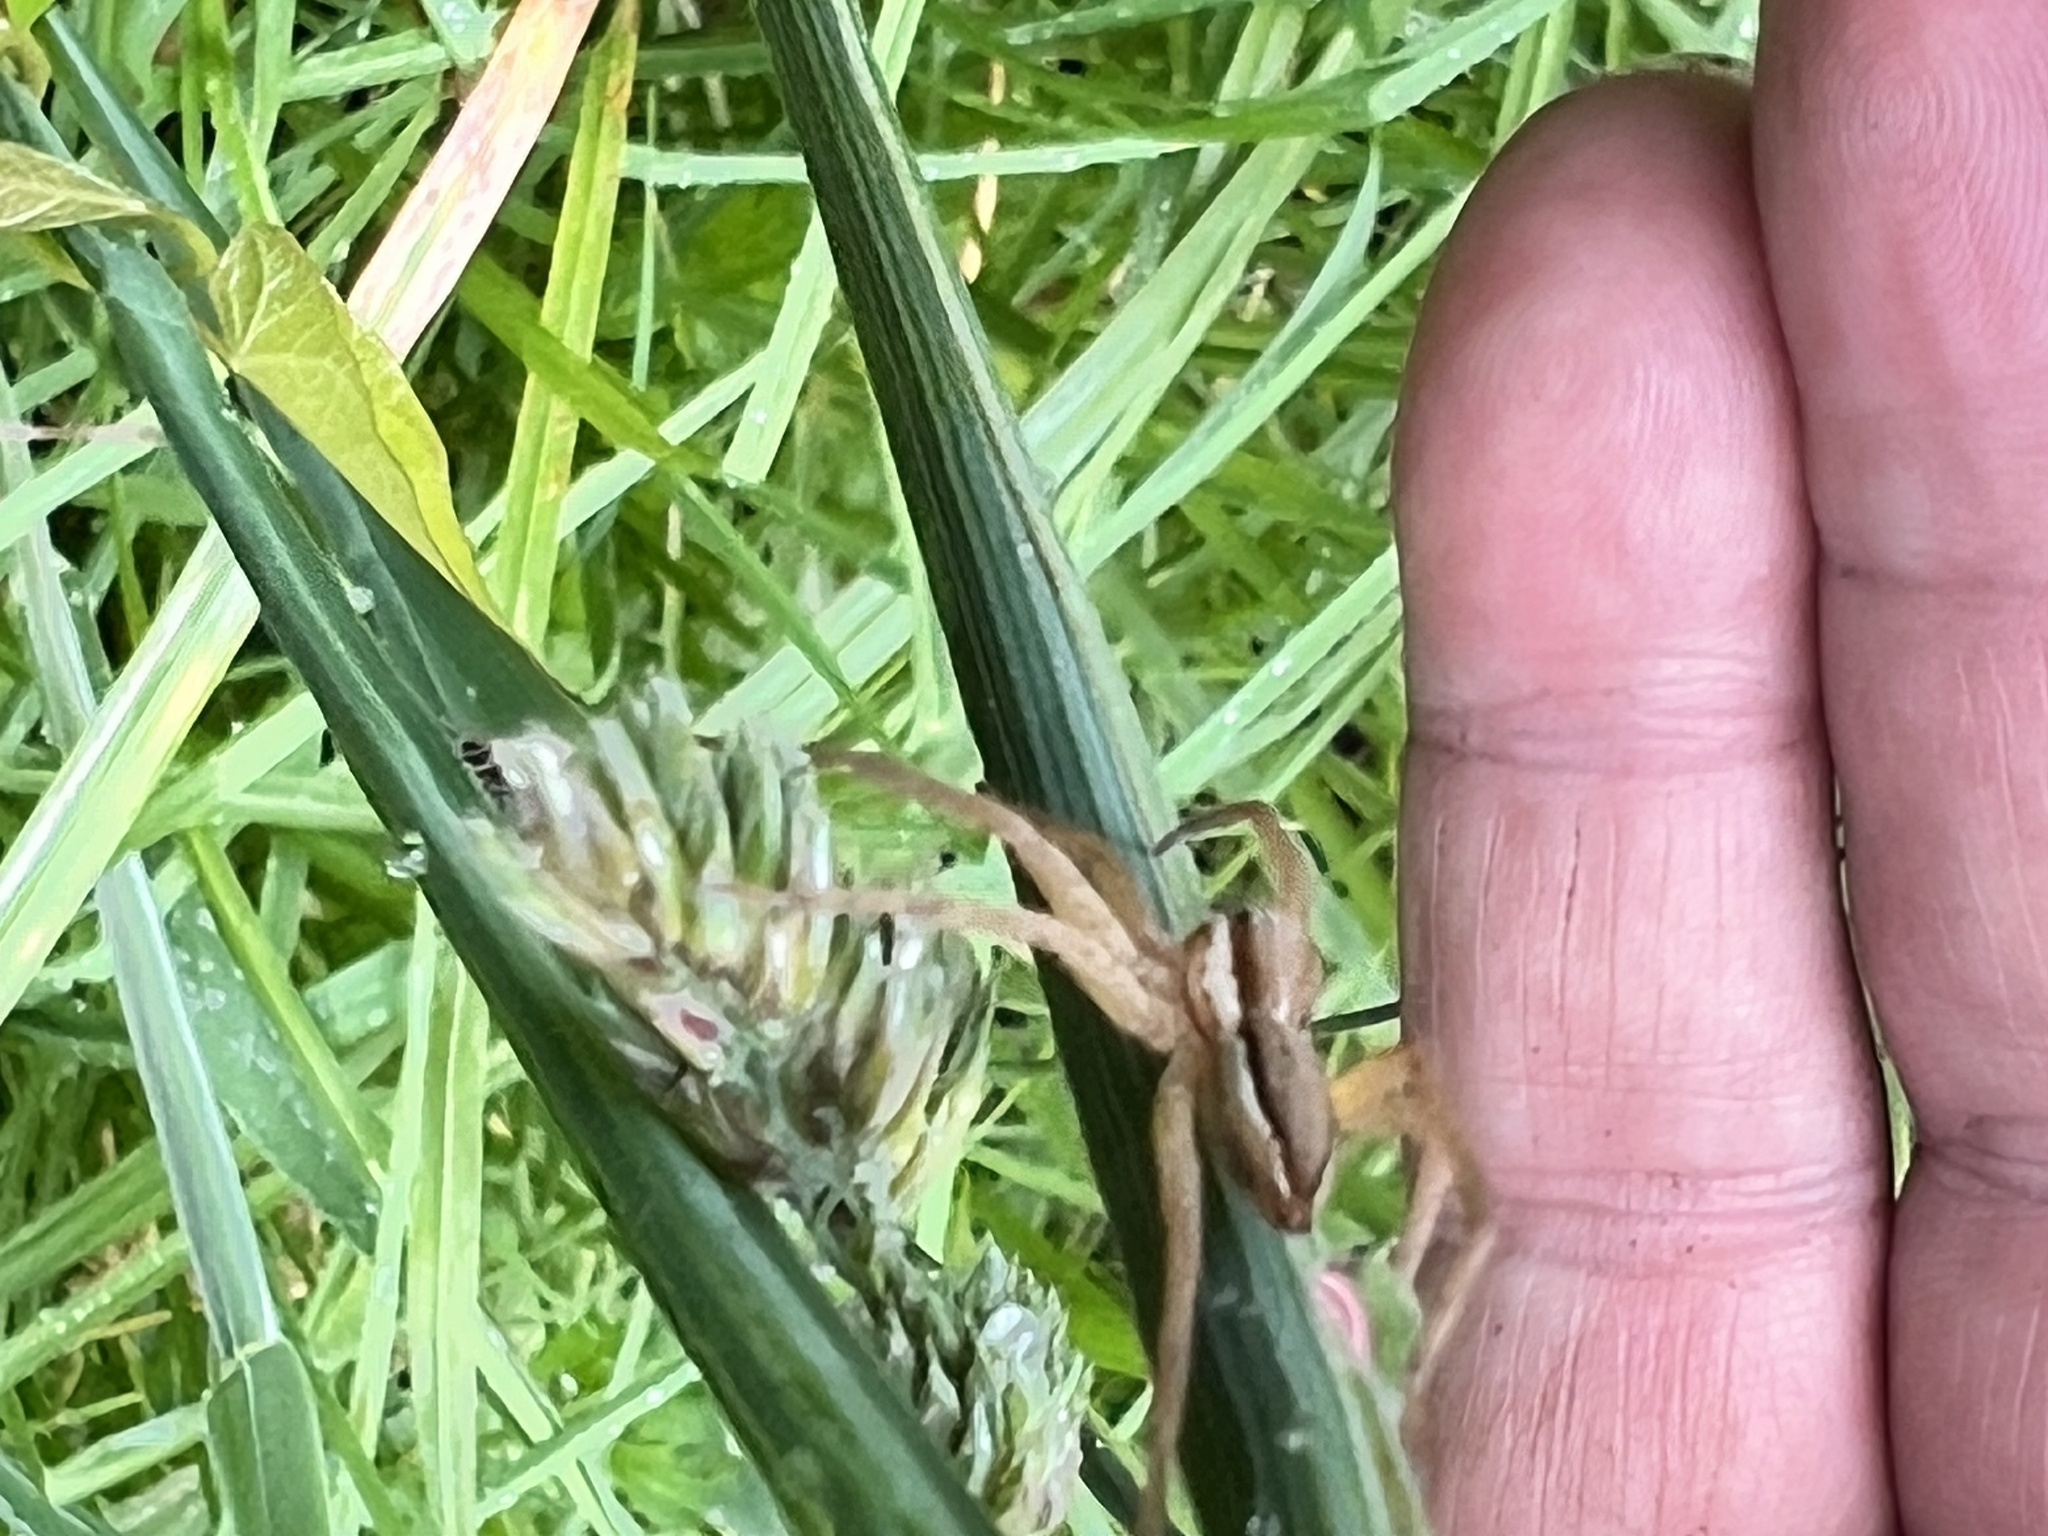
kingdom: Animalia
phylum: Arthropoda
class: Arachnida
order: Araneae
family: Pisauridae
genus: Dolomedes
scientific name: Dolomedes minor
